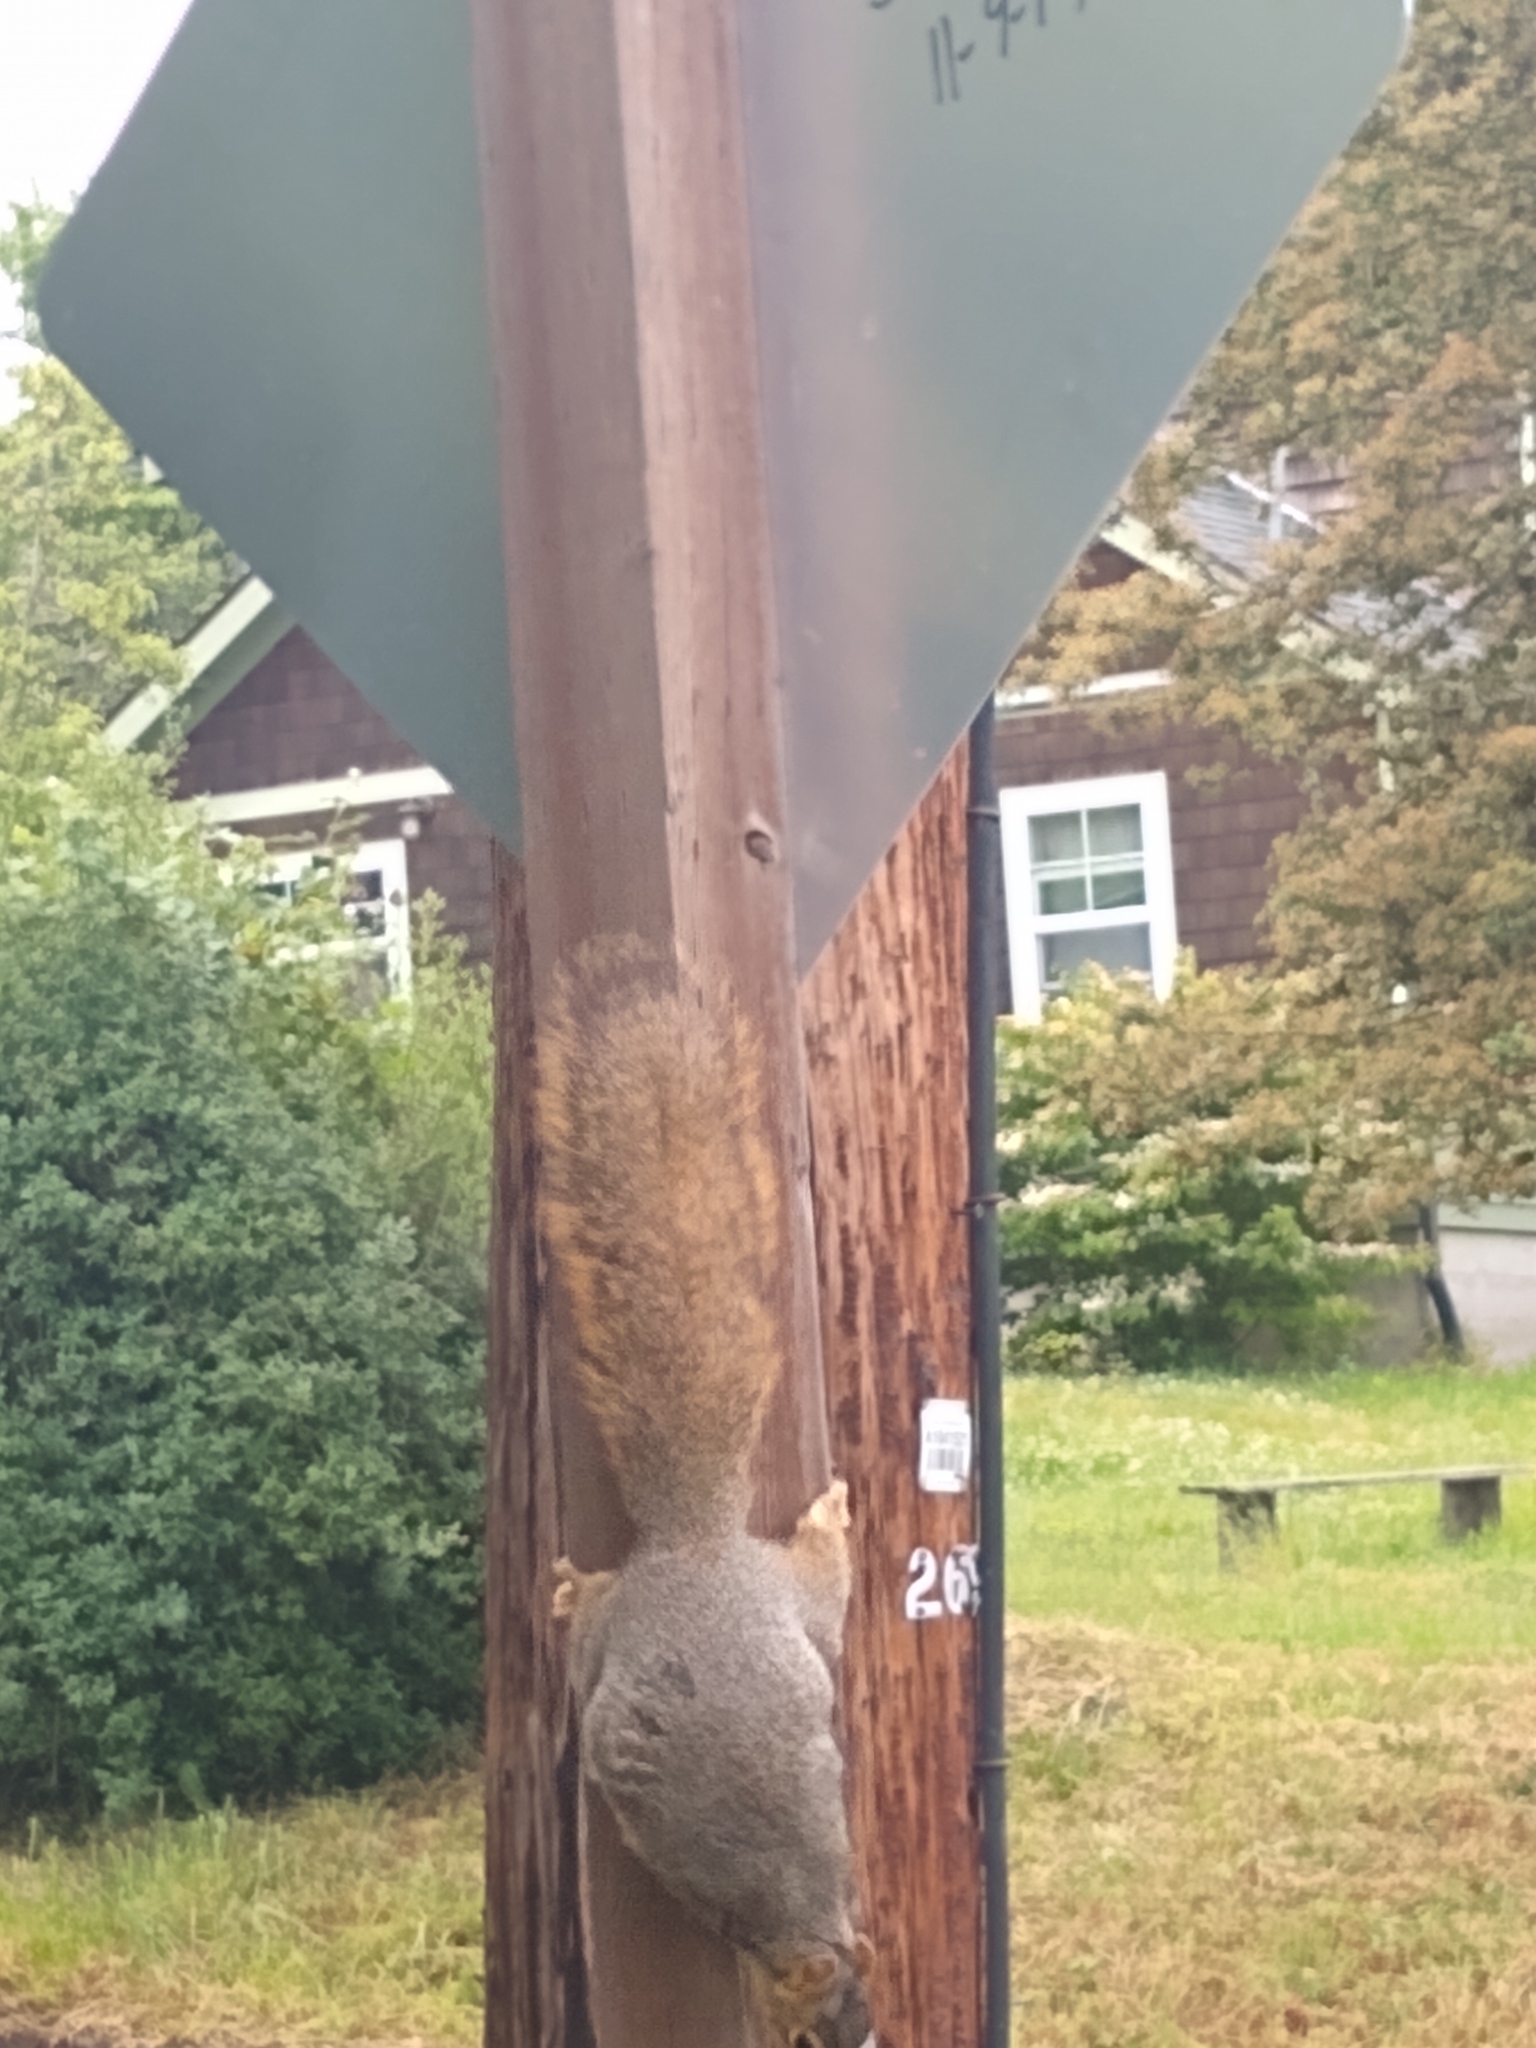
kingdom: Animalia
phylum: Chordata
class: Mammalia
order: Rodentia
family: Sciuridae
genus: Sciurus
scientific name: Sciurus niger
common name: Fox squirrel
